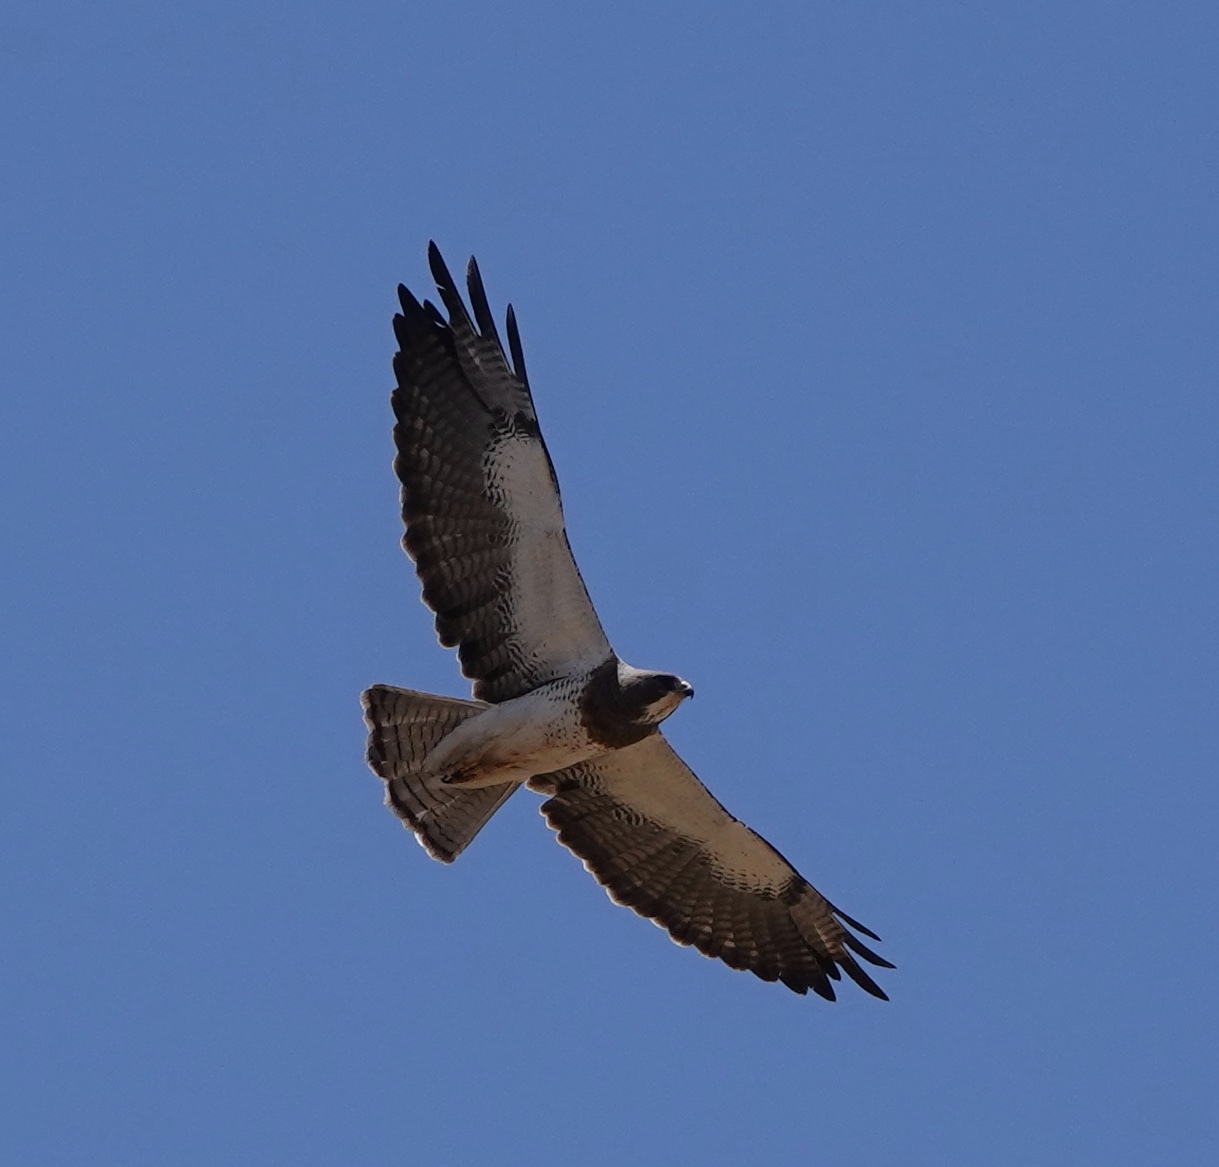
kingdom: Animalia
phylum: Chordata
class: Aves
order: Accipitriformes
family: Accipitridae
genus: Buteo
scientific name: Buteo swainsoni
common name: Swainson's hawk
